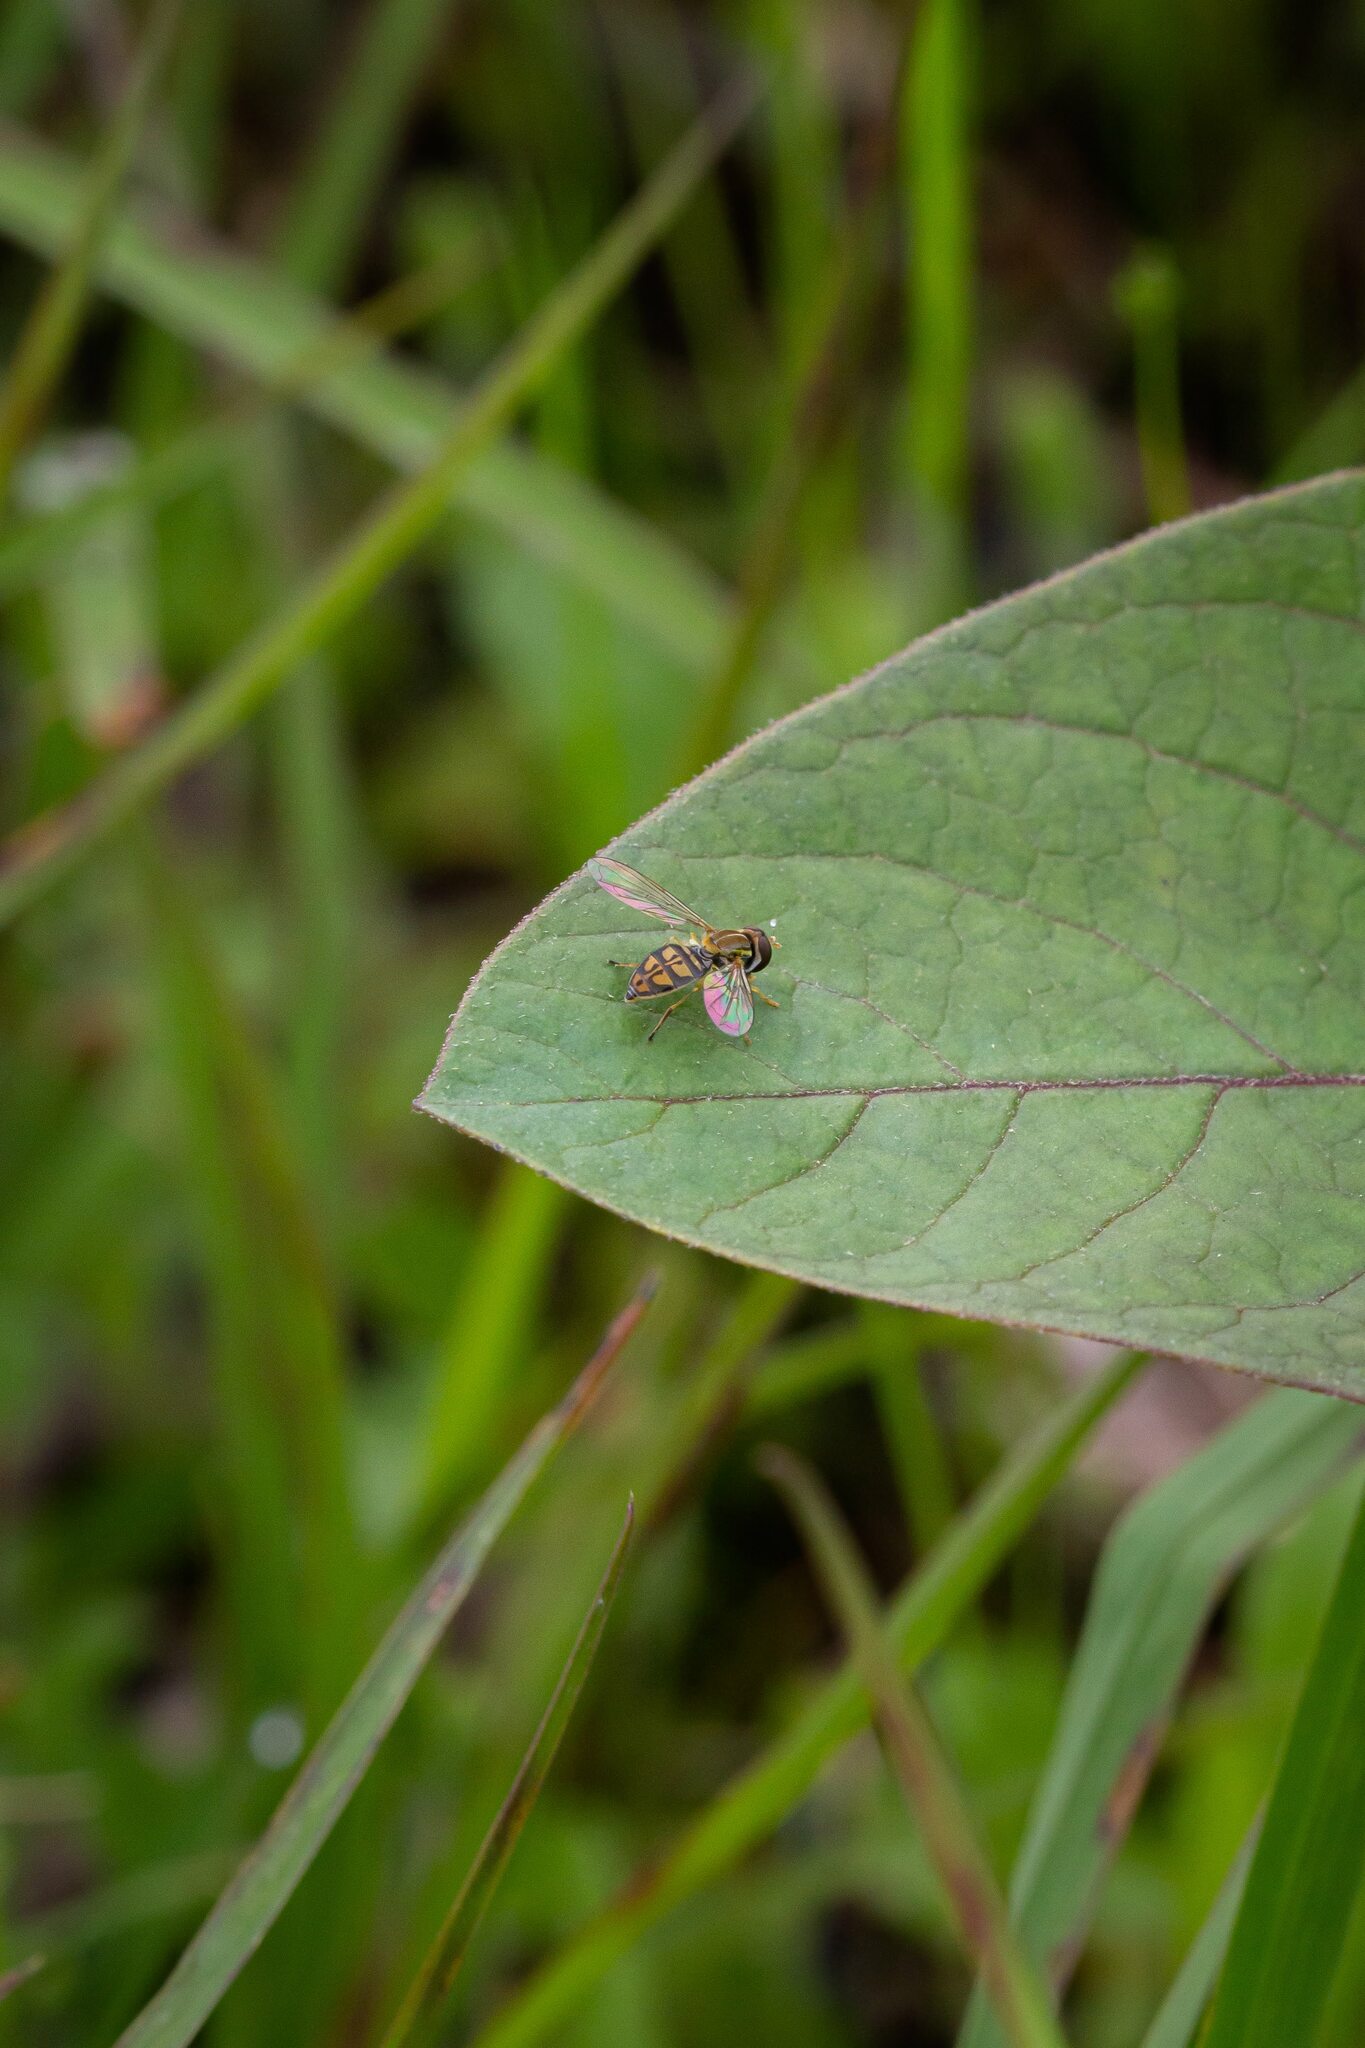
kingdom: Animalia
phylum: Arthropoda
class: Insecta
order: Diptera
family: Syrphidae
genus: Toxomerus
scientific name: Toxomerus marginatus
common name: Syrphid fly
